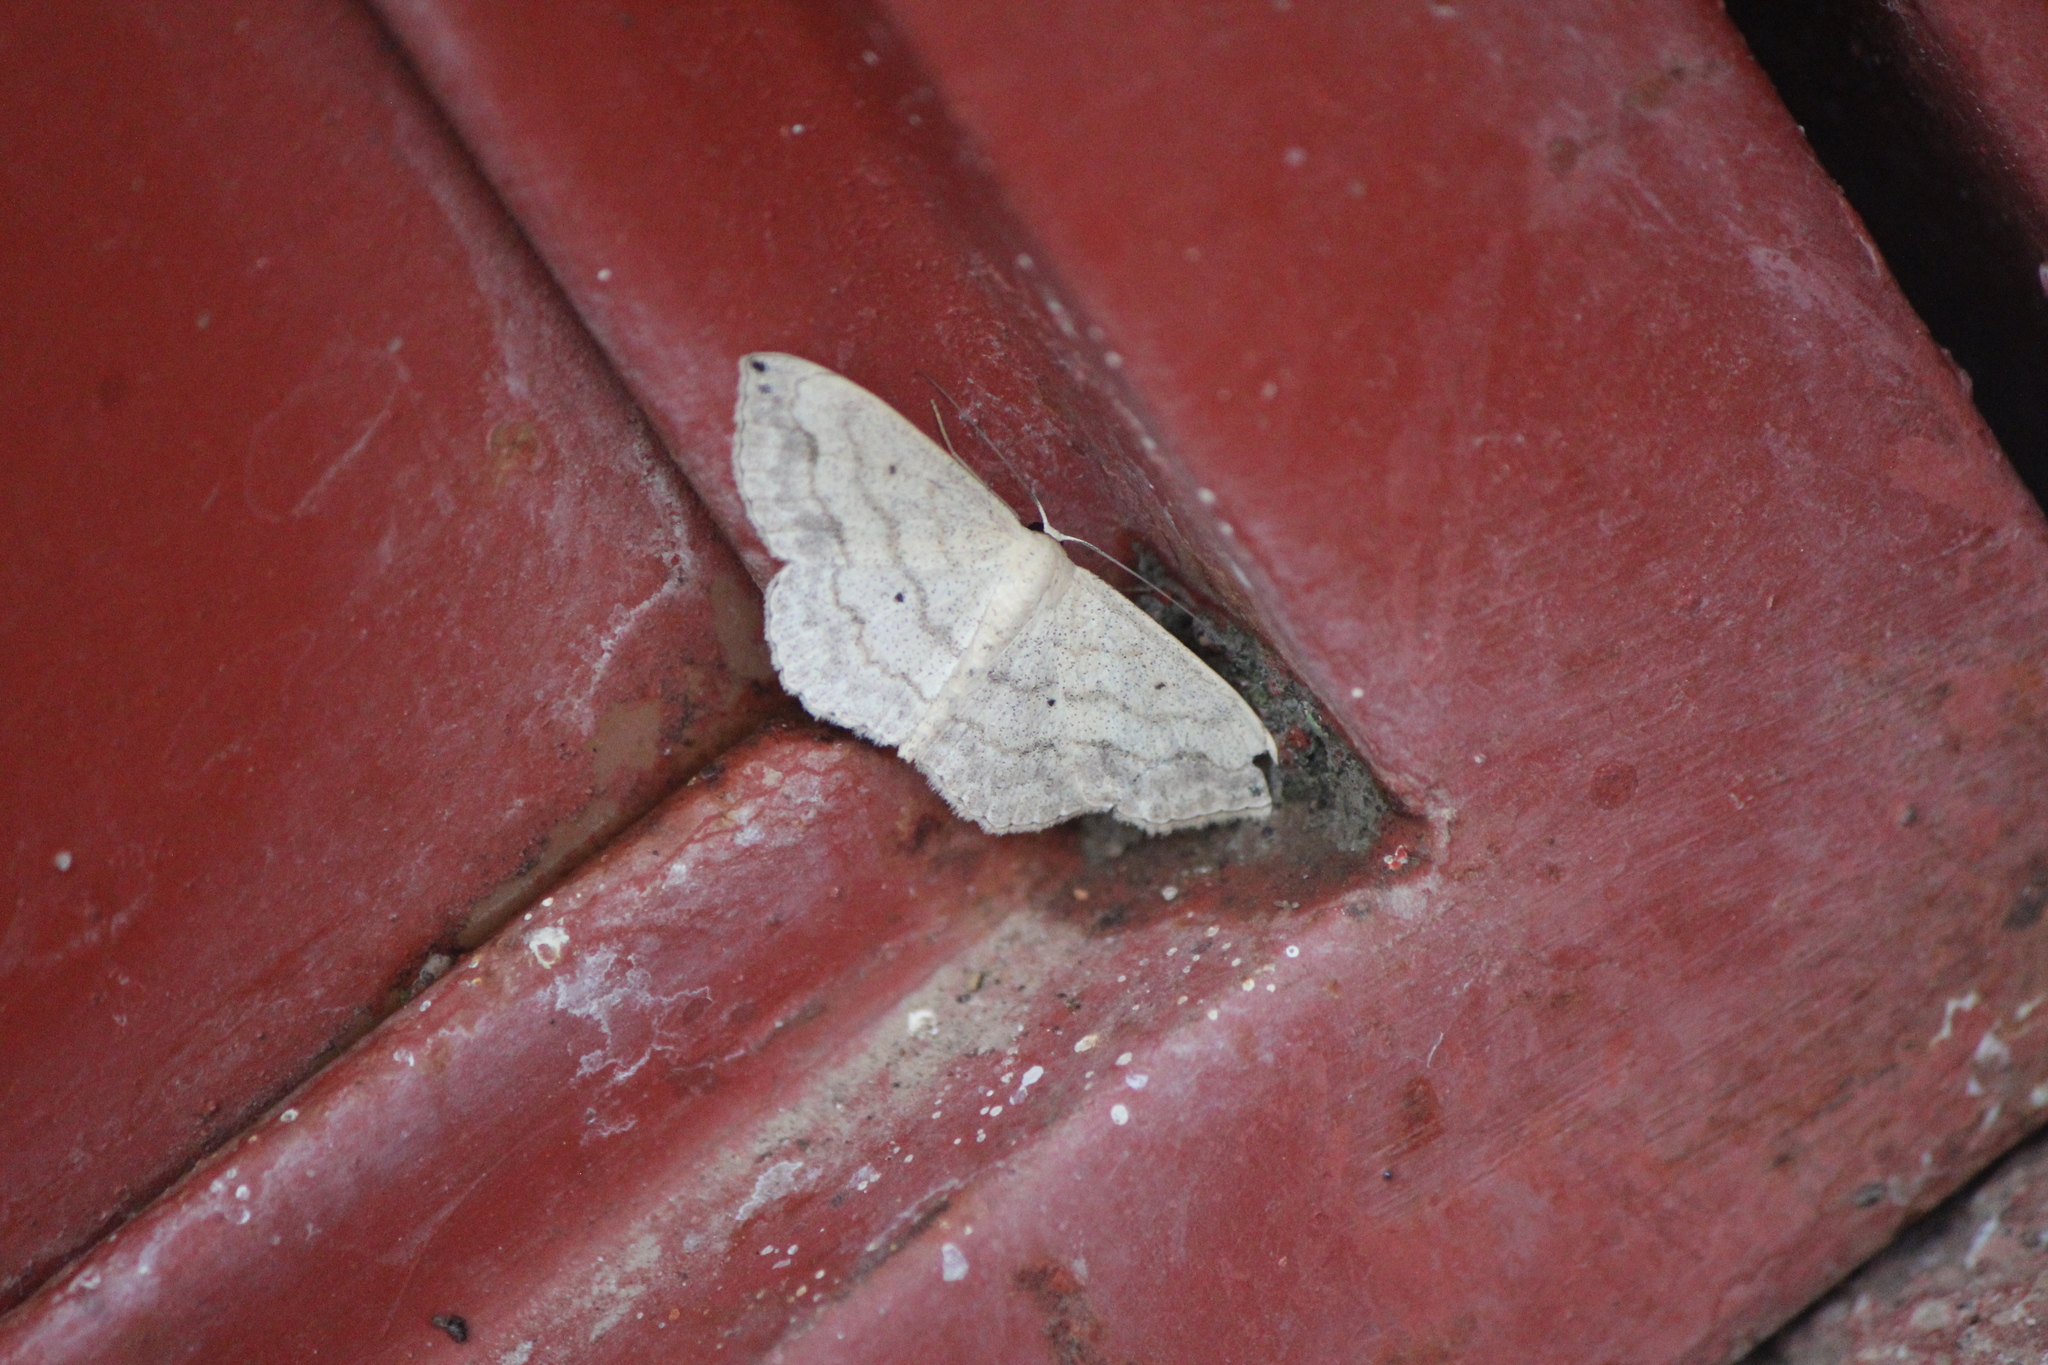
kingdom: Animalia
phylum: Arthropoda
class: Insecta
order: Lepidoptera
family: Geometridae
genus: Scopula
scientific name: Scopula umbilicata
